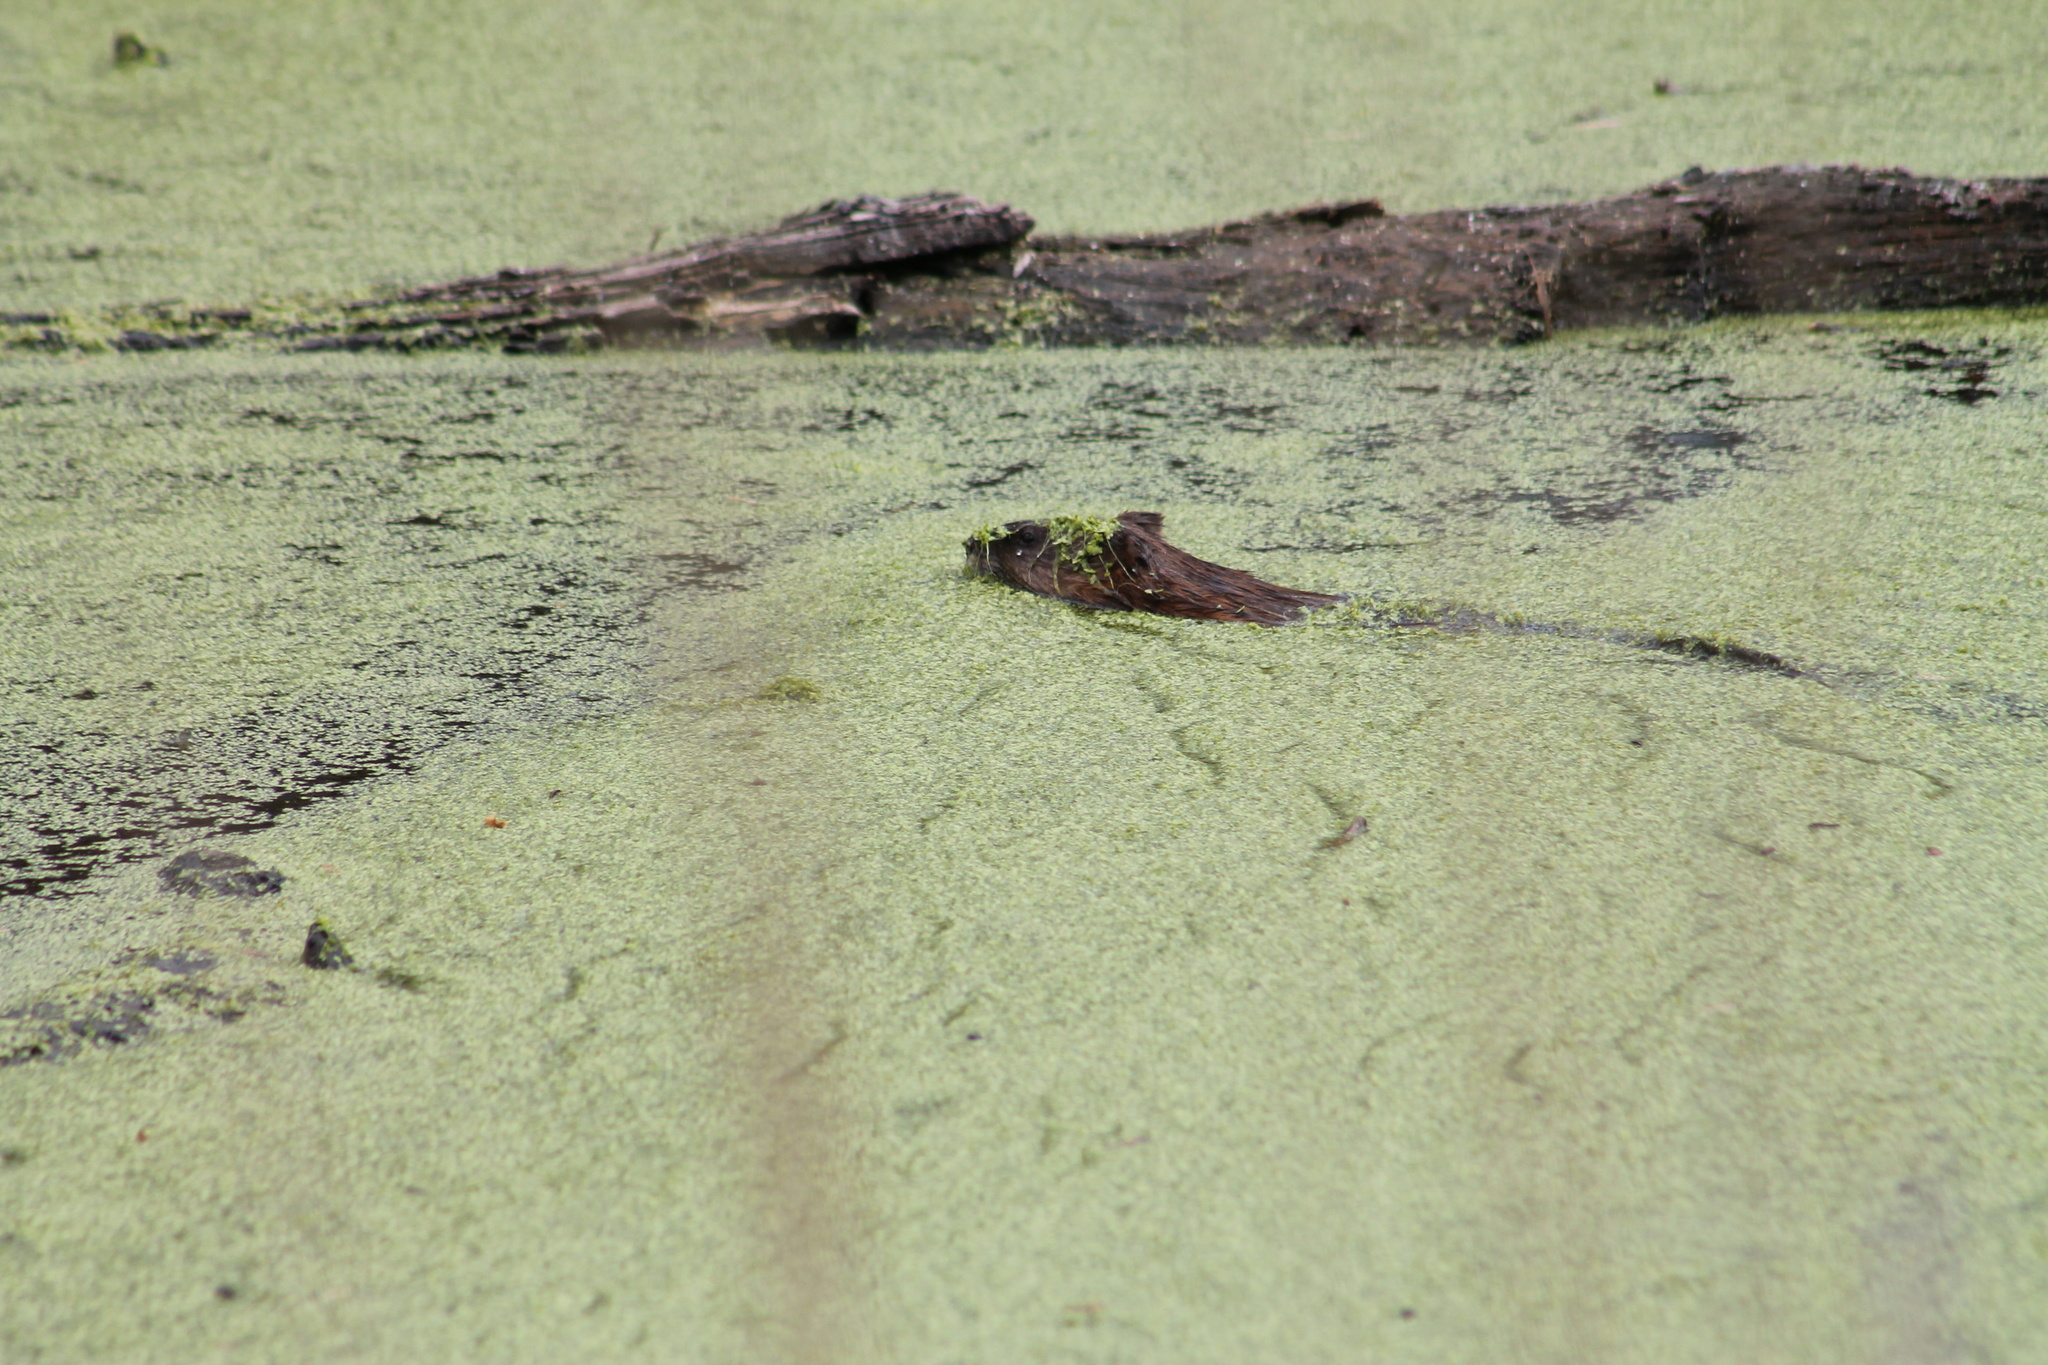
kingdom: Animalia
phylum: Chordata
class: Mammalia
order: Rodentia
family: Cricetidae
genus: Ondatra
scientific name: Ondatra zibethicus
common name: Muskrat
